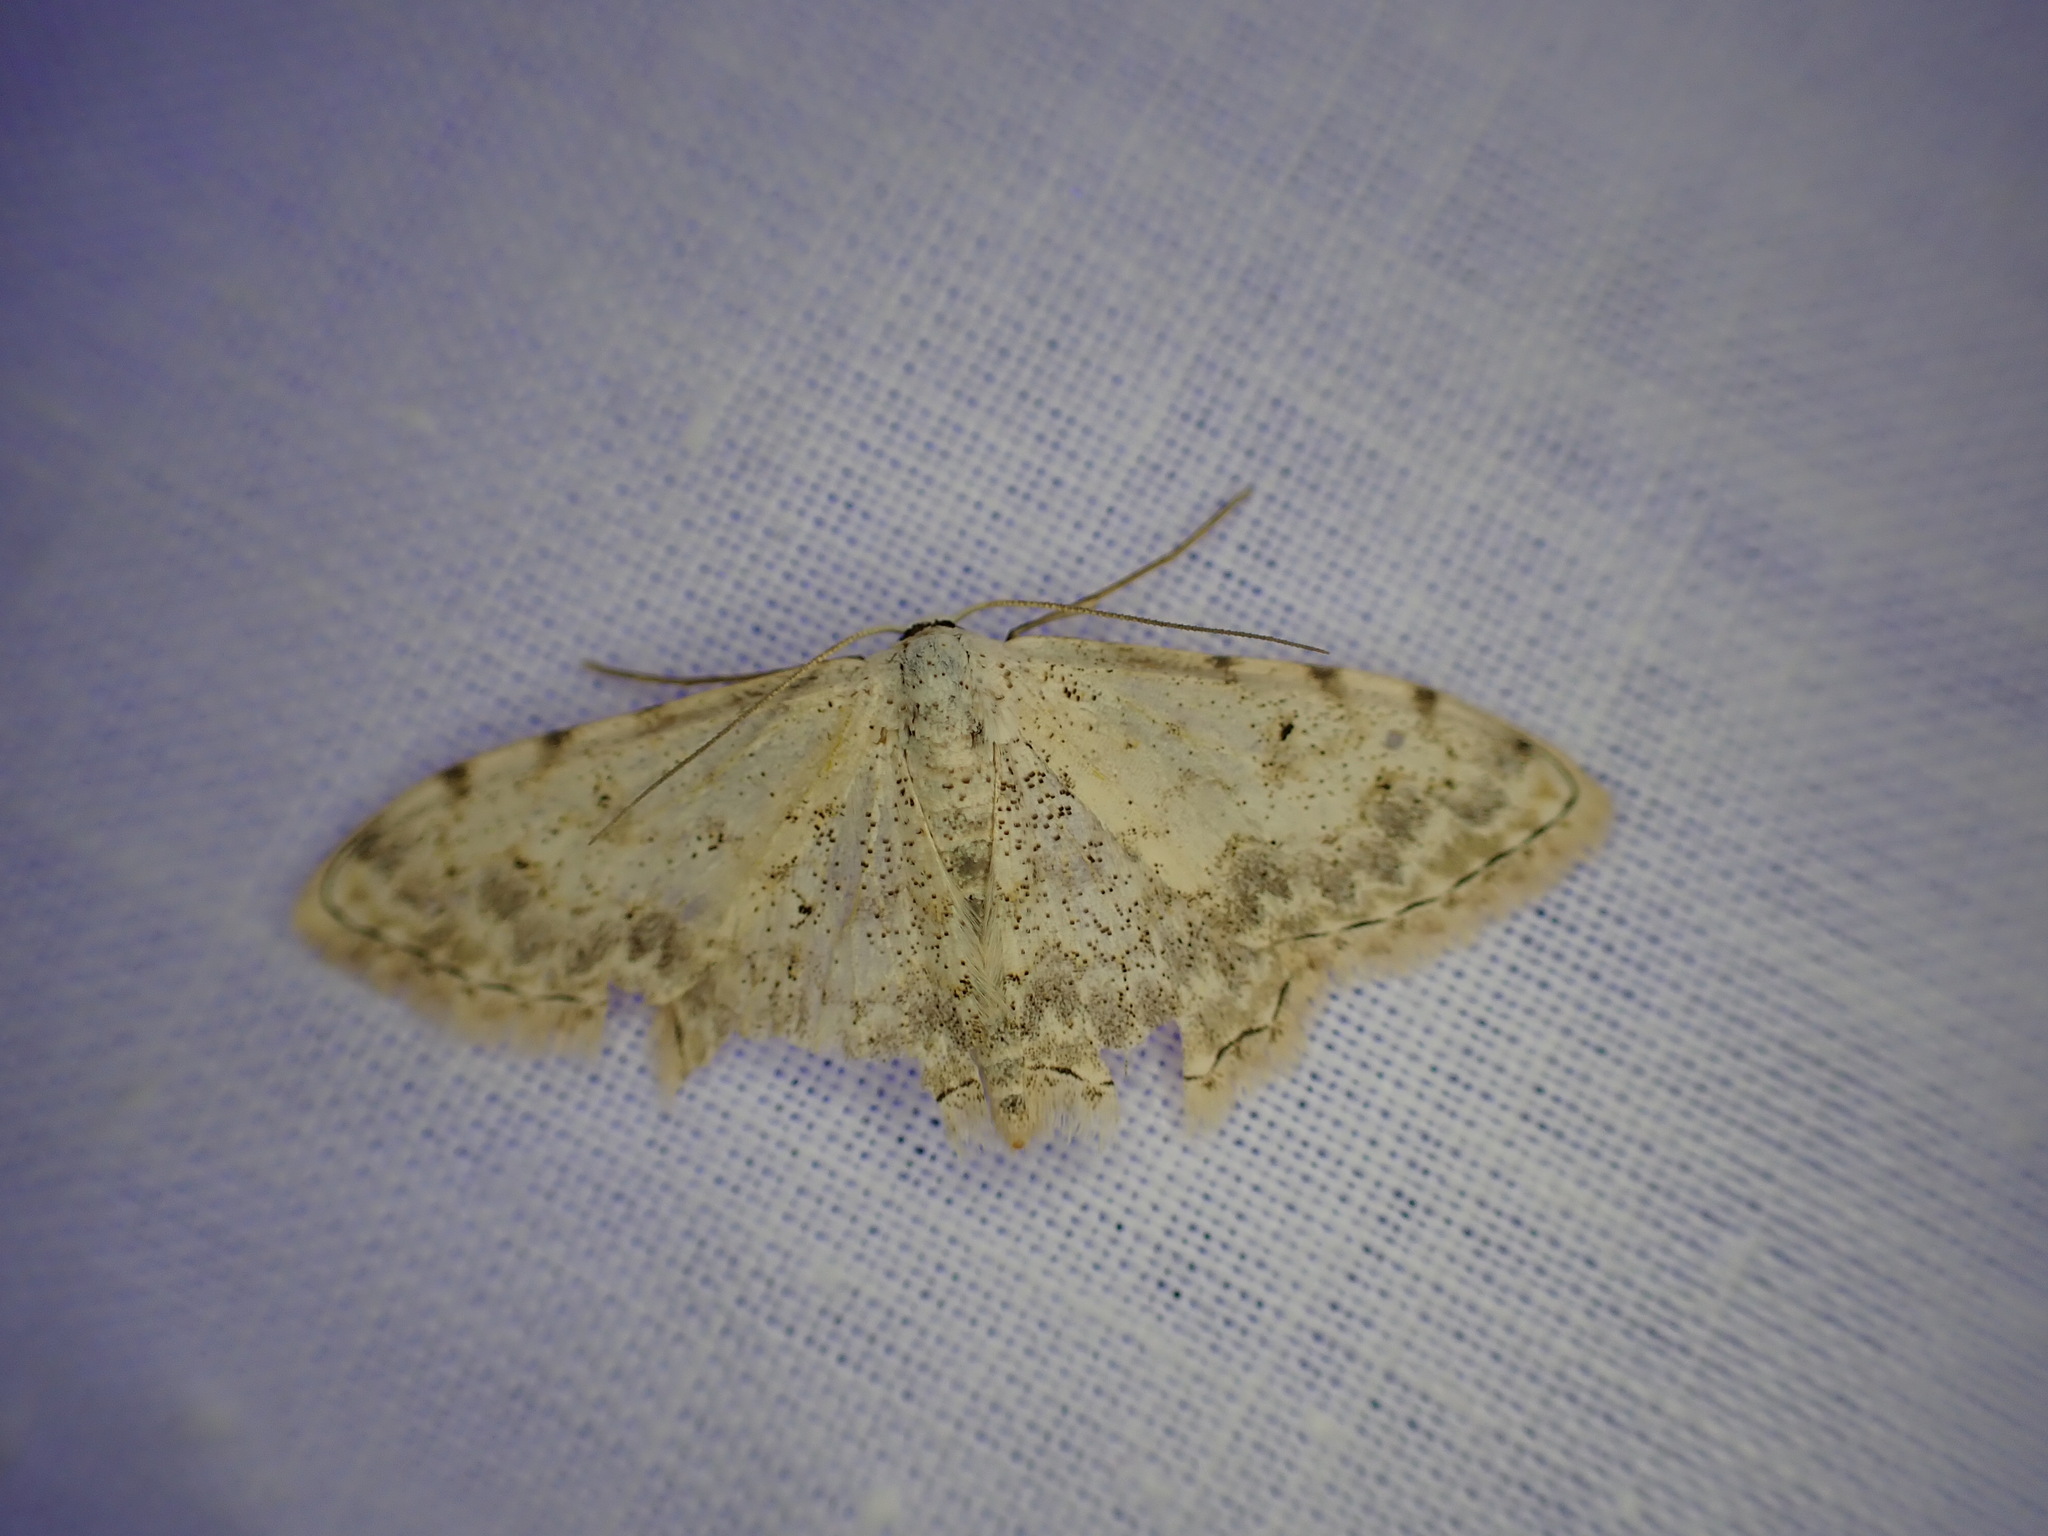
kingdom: Animalia
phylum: Arthropoda
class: Insecta
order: Lepidoptera
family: Geometridae
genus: Scopula
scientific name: Scopula submutata
